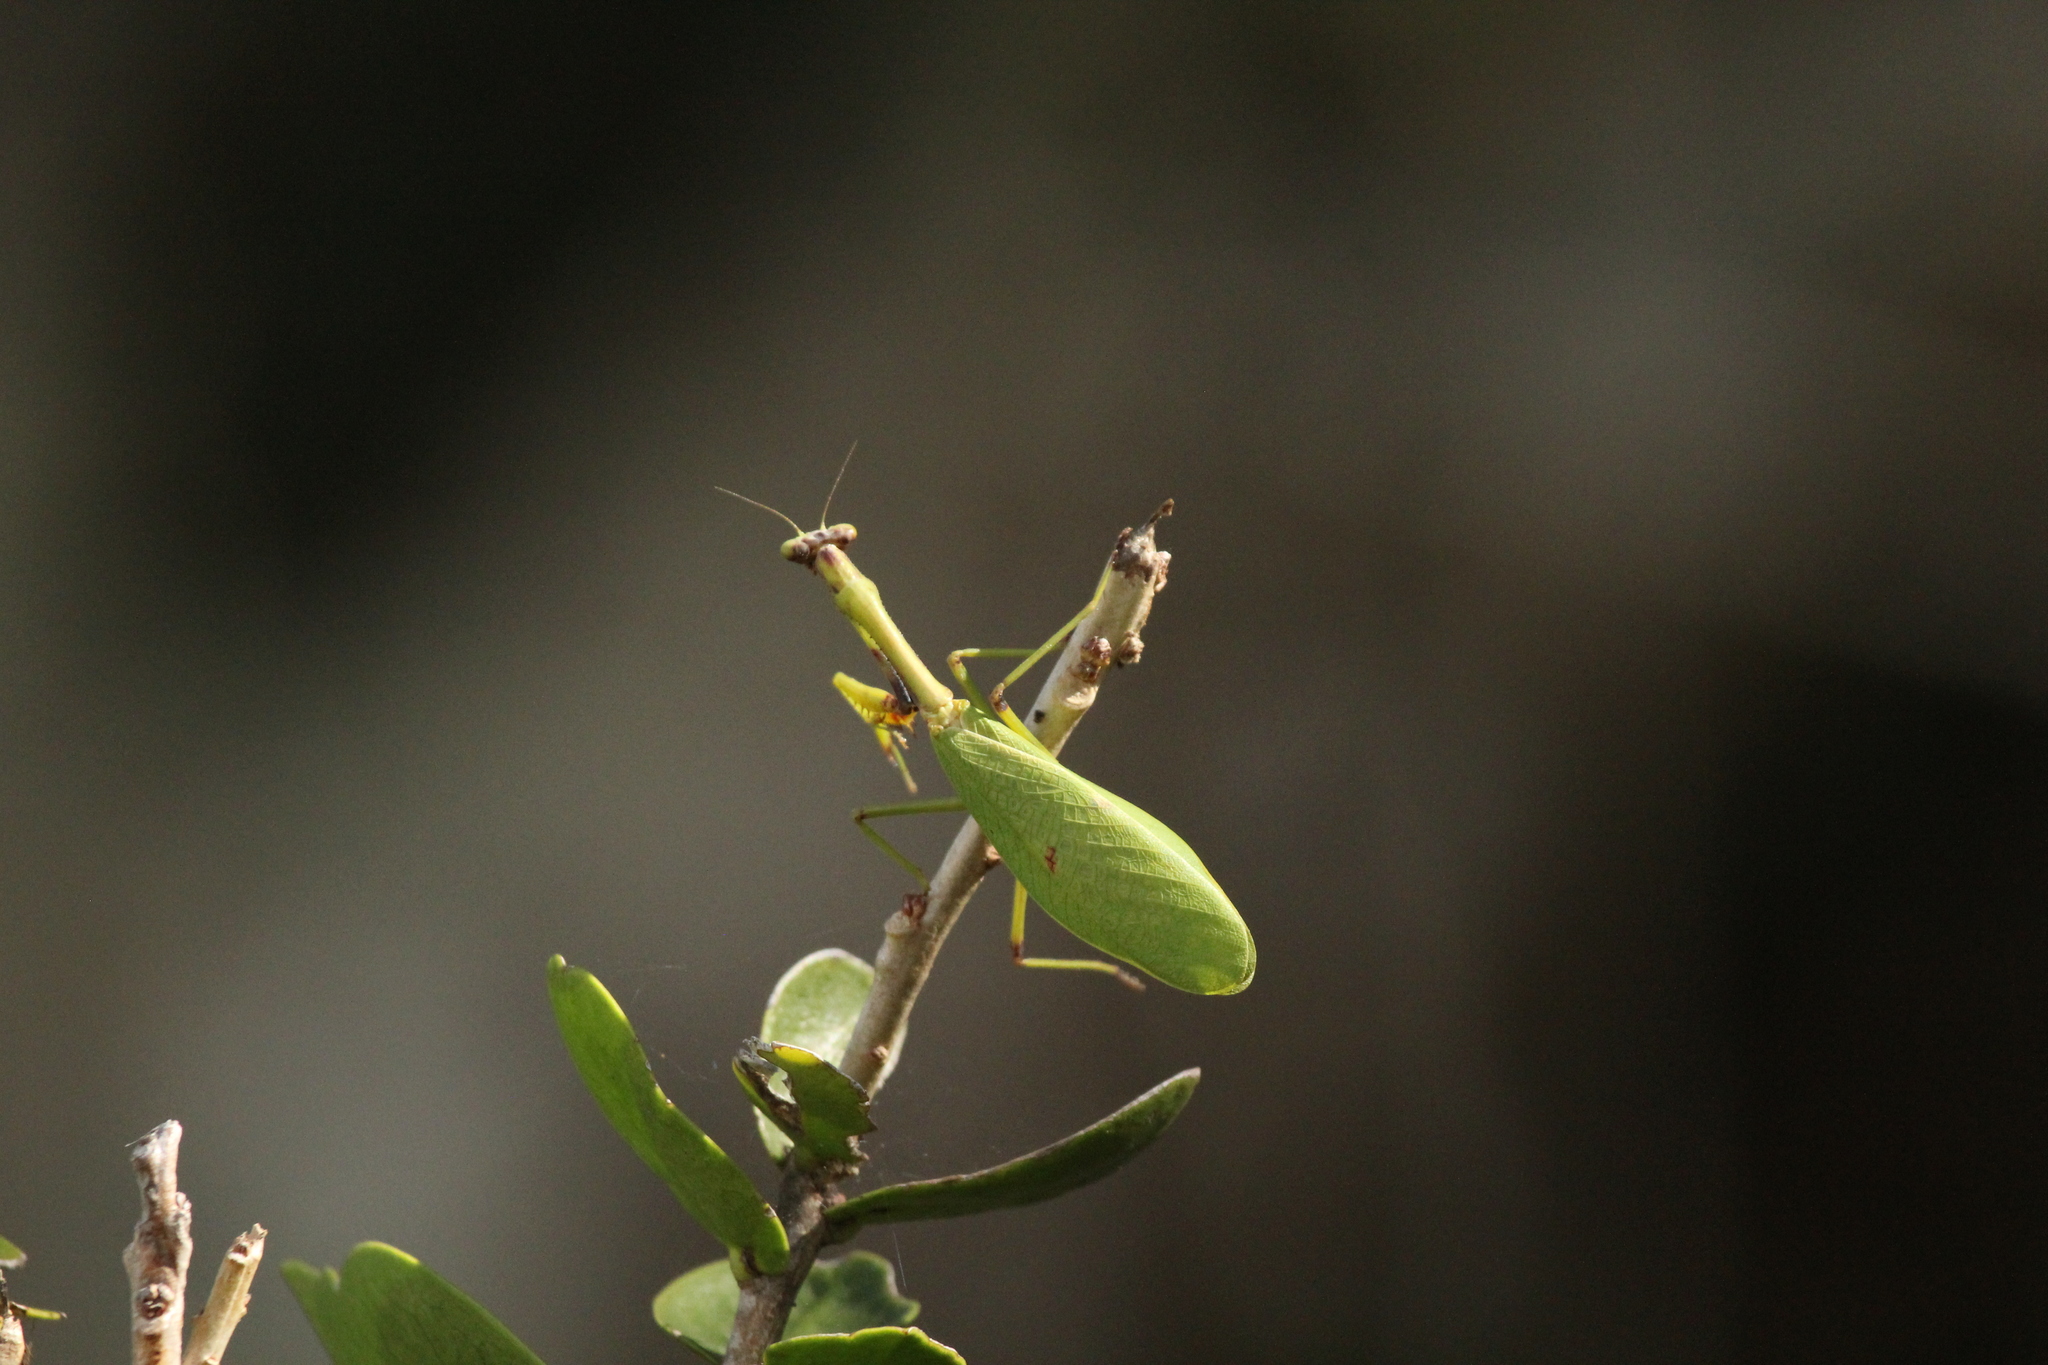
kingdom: Animalia
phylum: Arthropoda
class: Insecta
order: Mantodea
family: Mantidae
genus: Parastagmatoptera
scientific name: Parastagmatoptera theresopolitana
